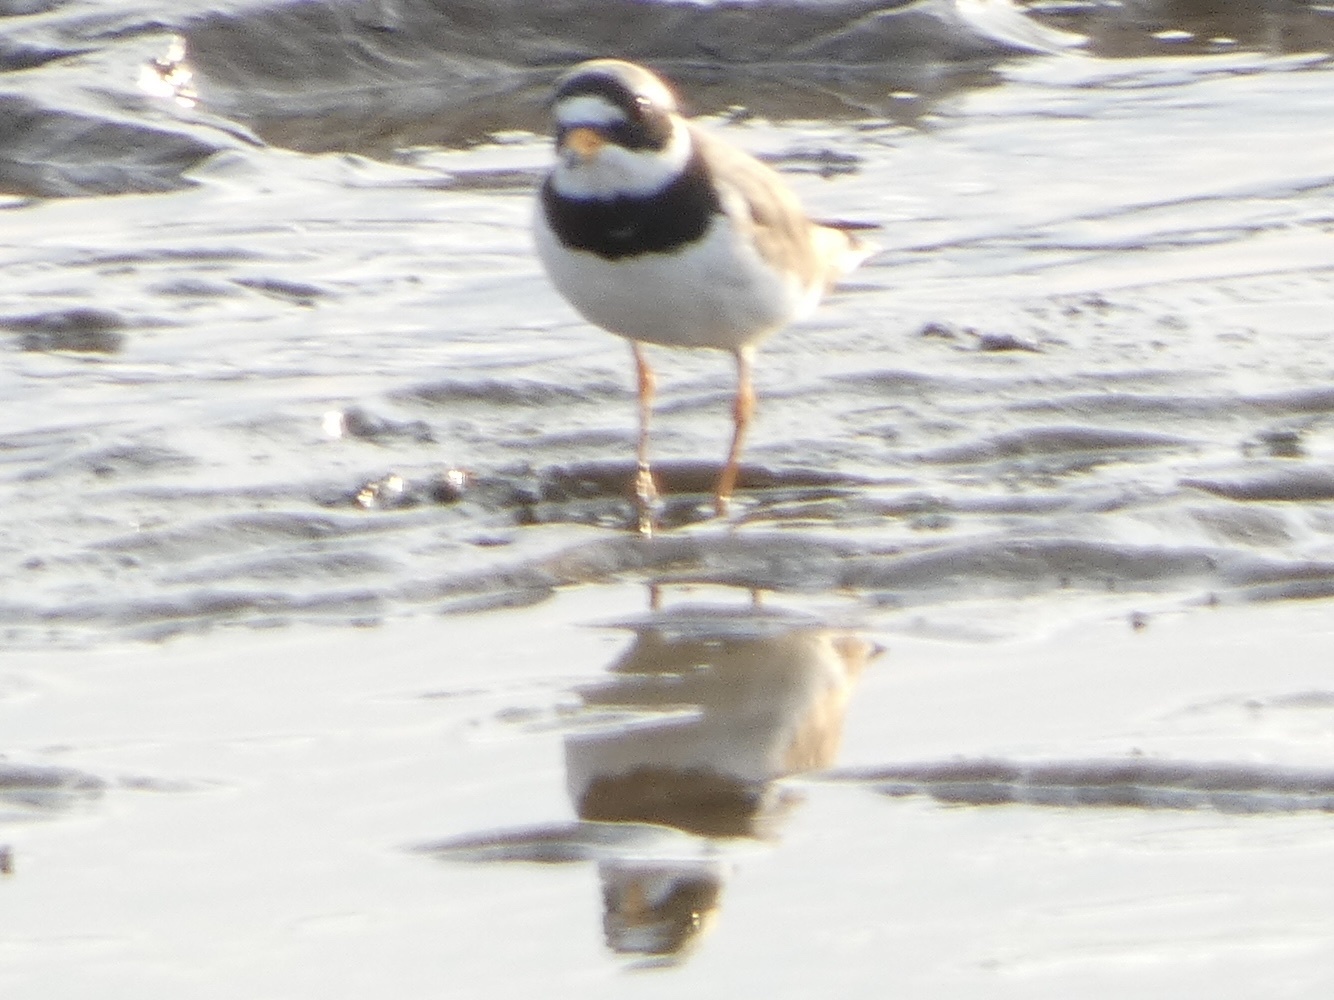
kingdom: Animalia
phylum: Chordata
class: Aves
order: Charadriiformes
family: Charadriidae
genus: Charadrius
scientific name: Charadrius hiaticula
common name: Common ringed plover
